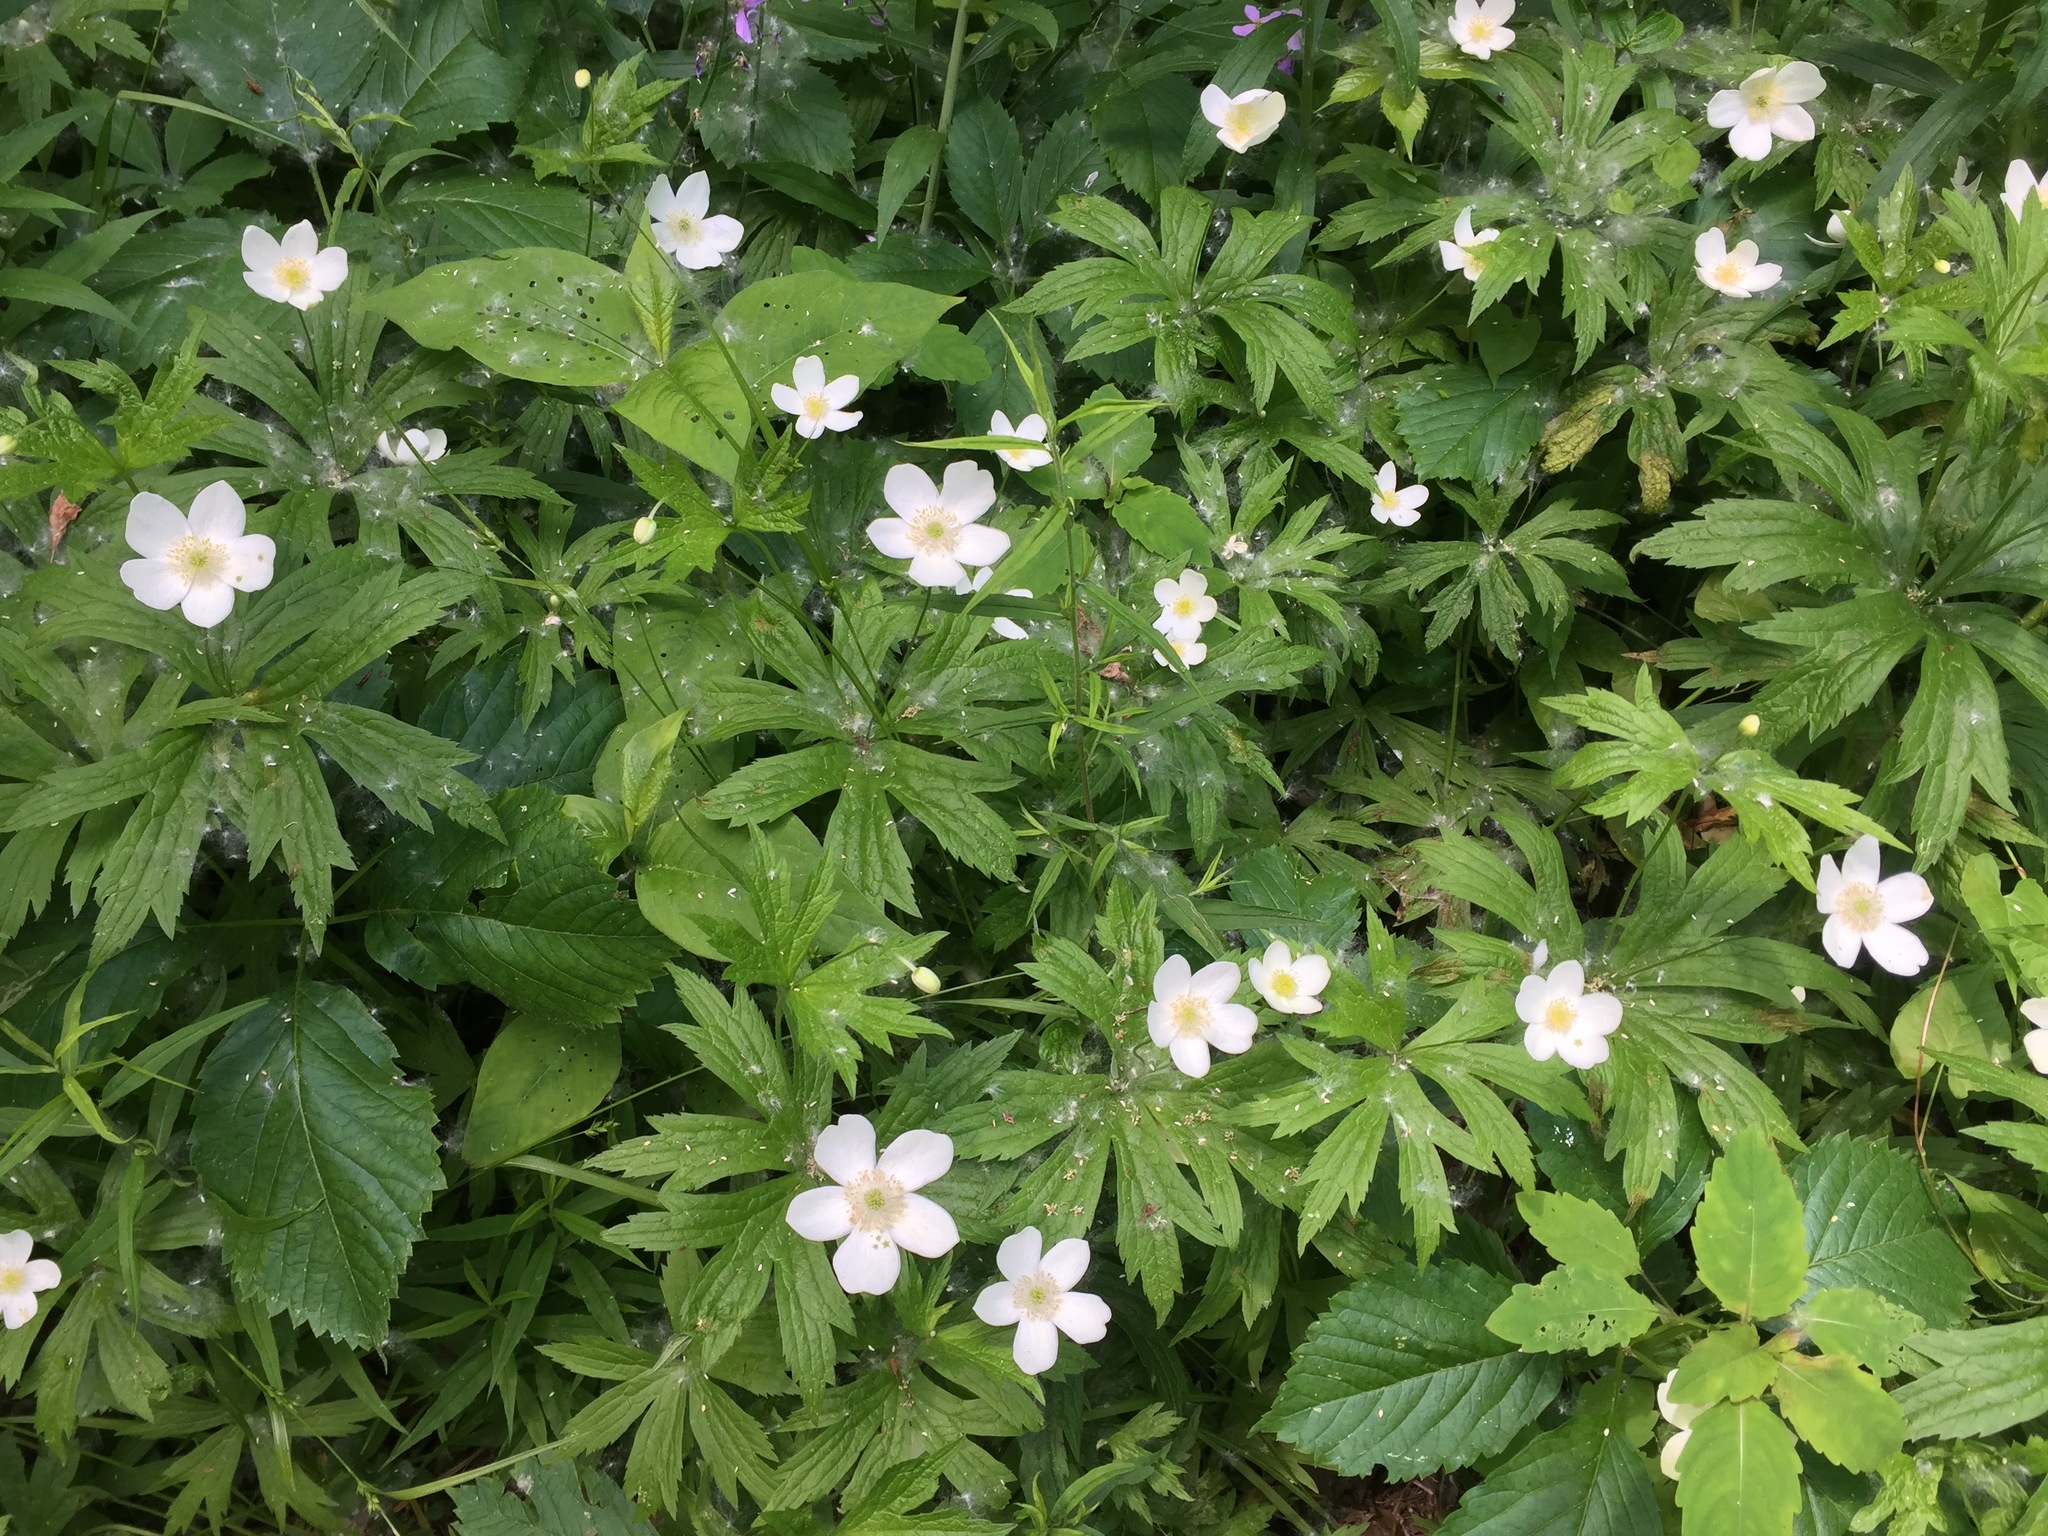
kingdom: Plantae
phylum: Tracheophyta
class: Magnoliopsida
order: Ranunculales
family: Ranunculaceae
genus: Anemonastrum
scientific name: Anemonastrum canadense
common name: Canada anemone
